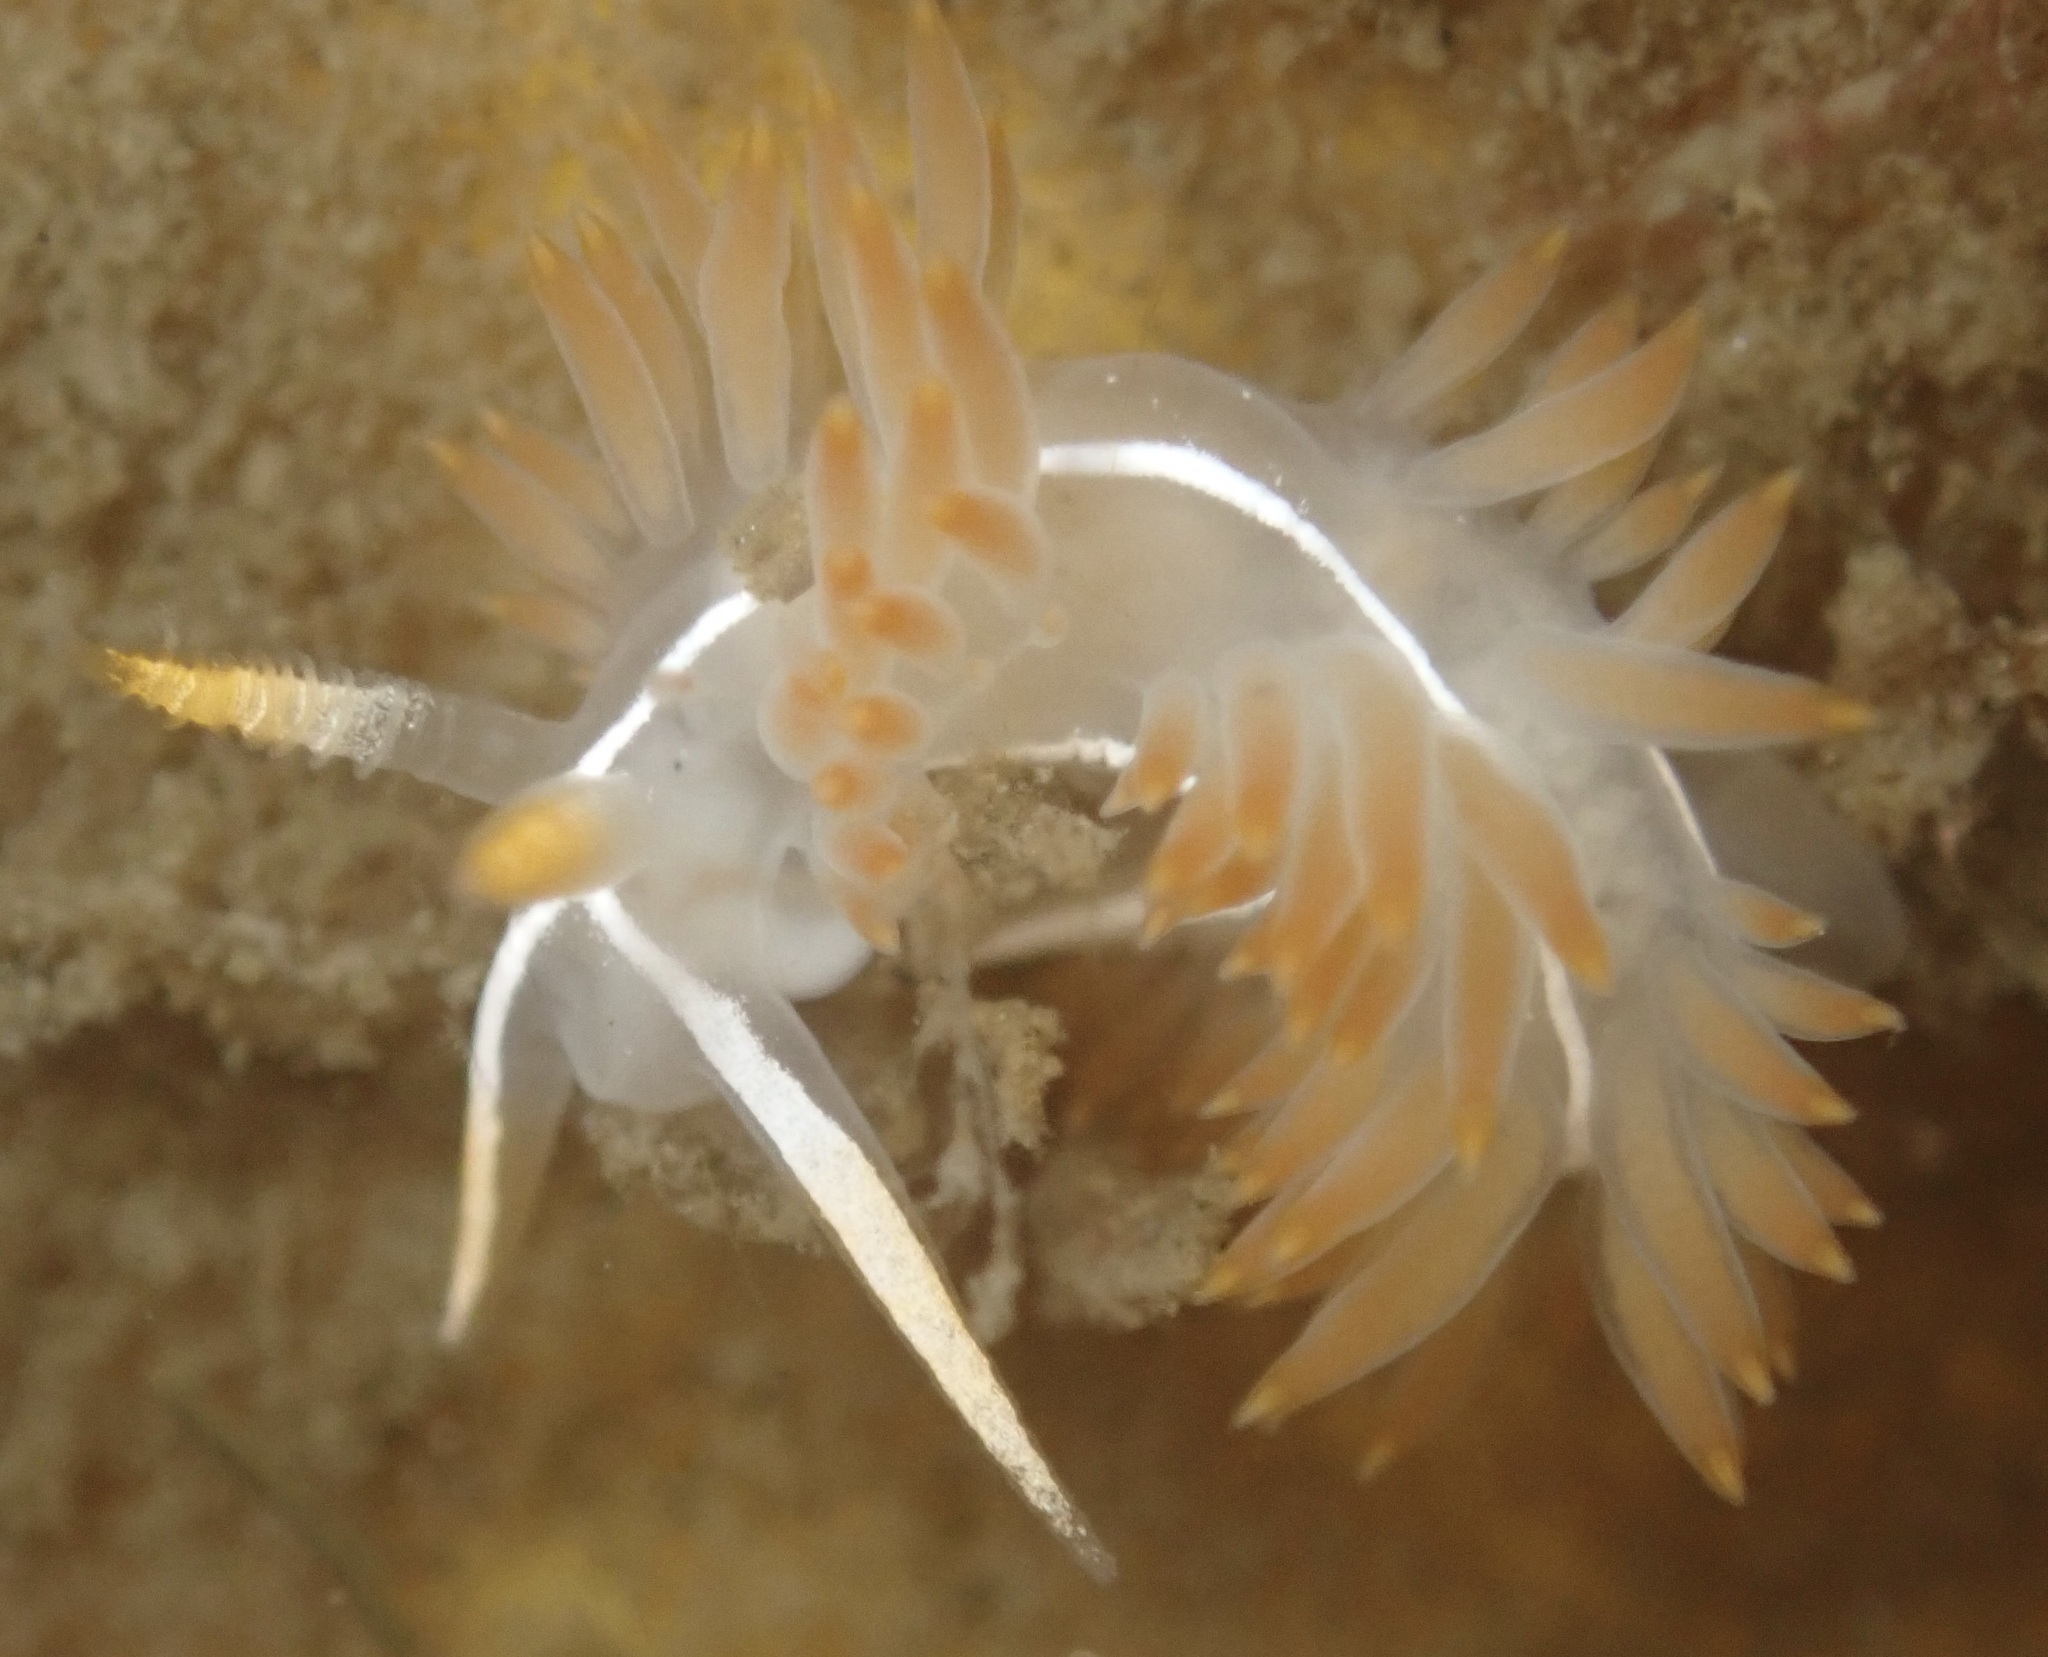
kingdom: Animalia
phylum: Mollusca
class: Gastropoda
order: Nudibranchia
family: Coryphellidae
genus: Coryphella
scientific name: Coryphella trilineata
